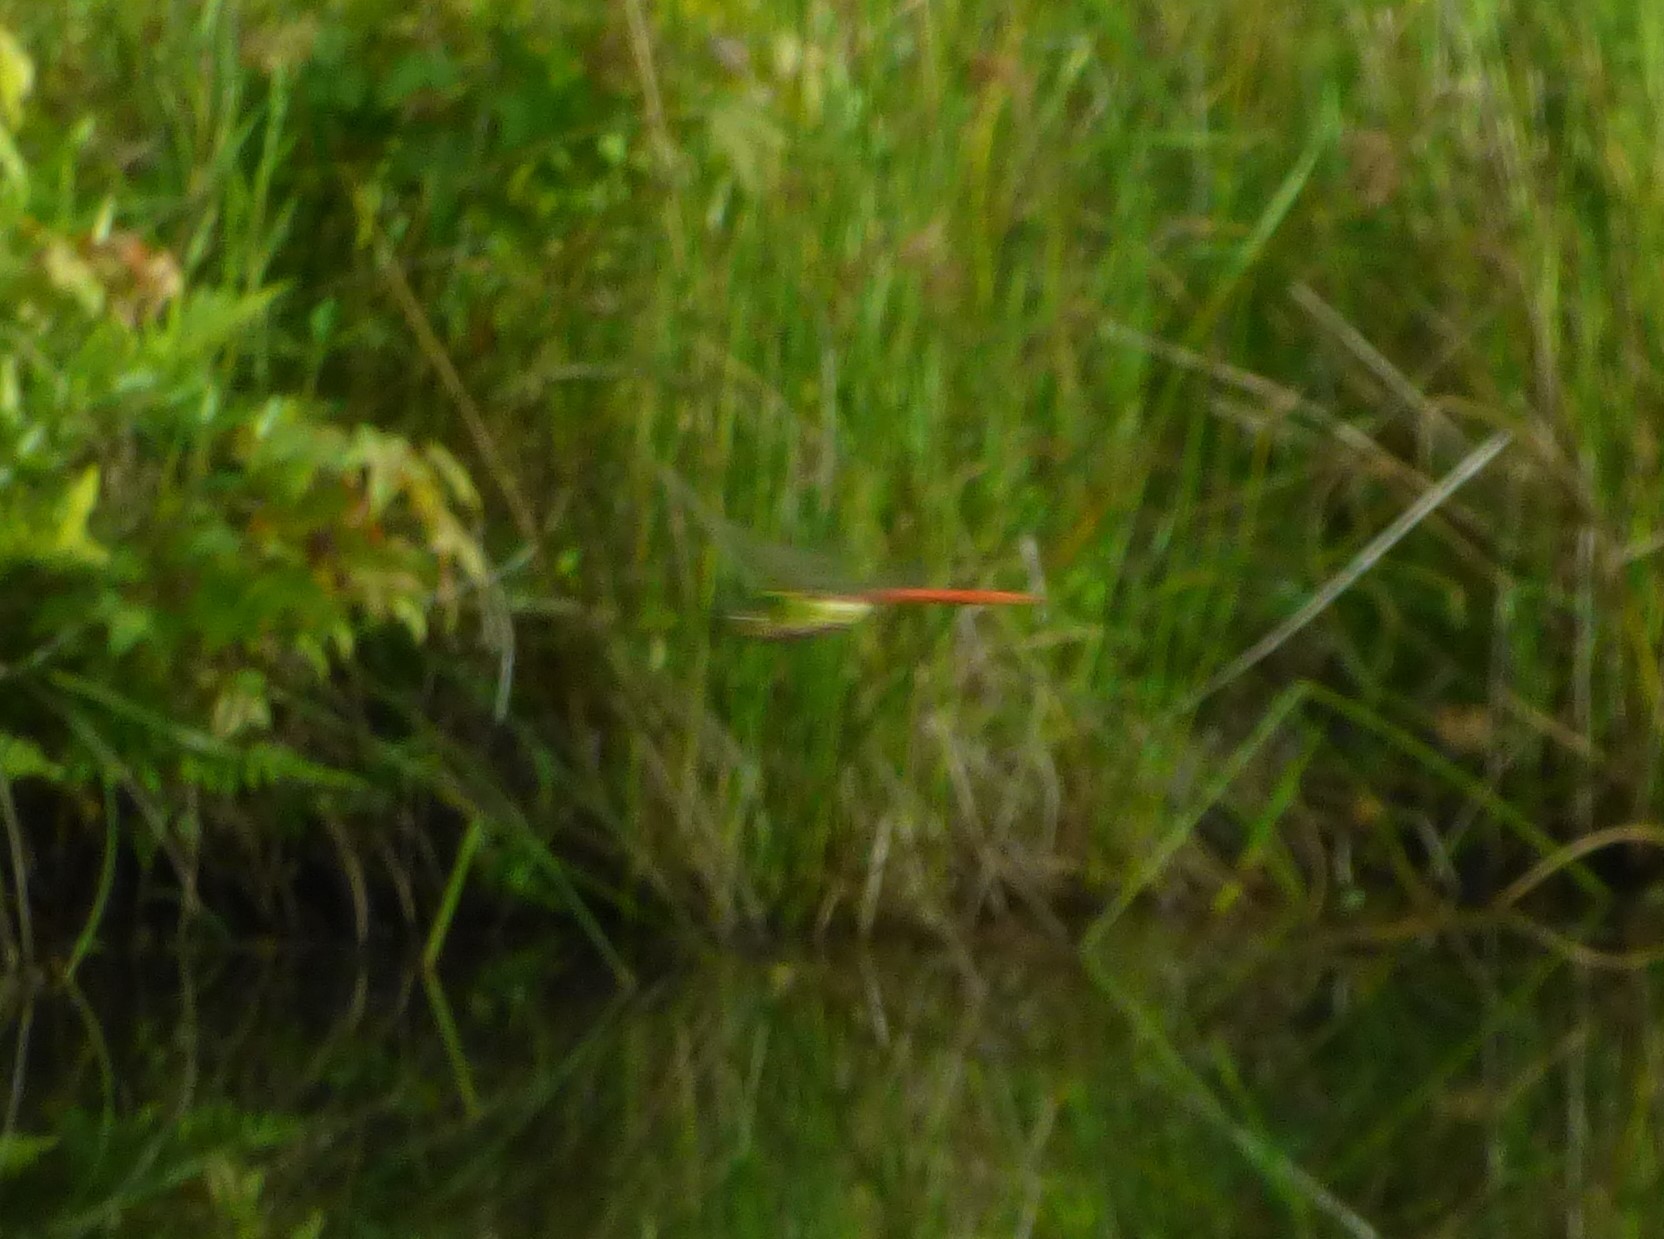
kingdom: Animalia
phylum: Arthropoda
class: Insecta
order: Odonata
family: Aeshnidae
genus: Anax
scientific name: Anax longipes
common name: Comet darner
